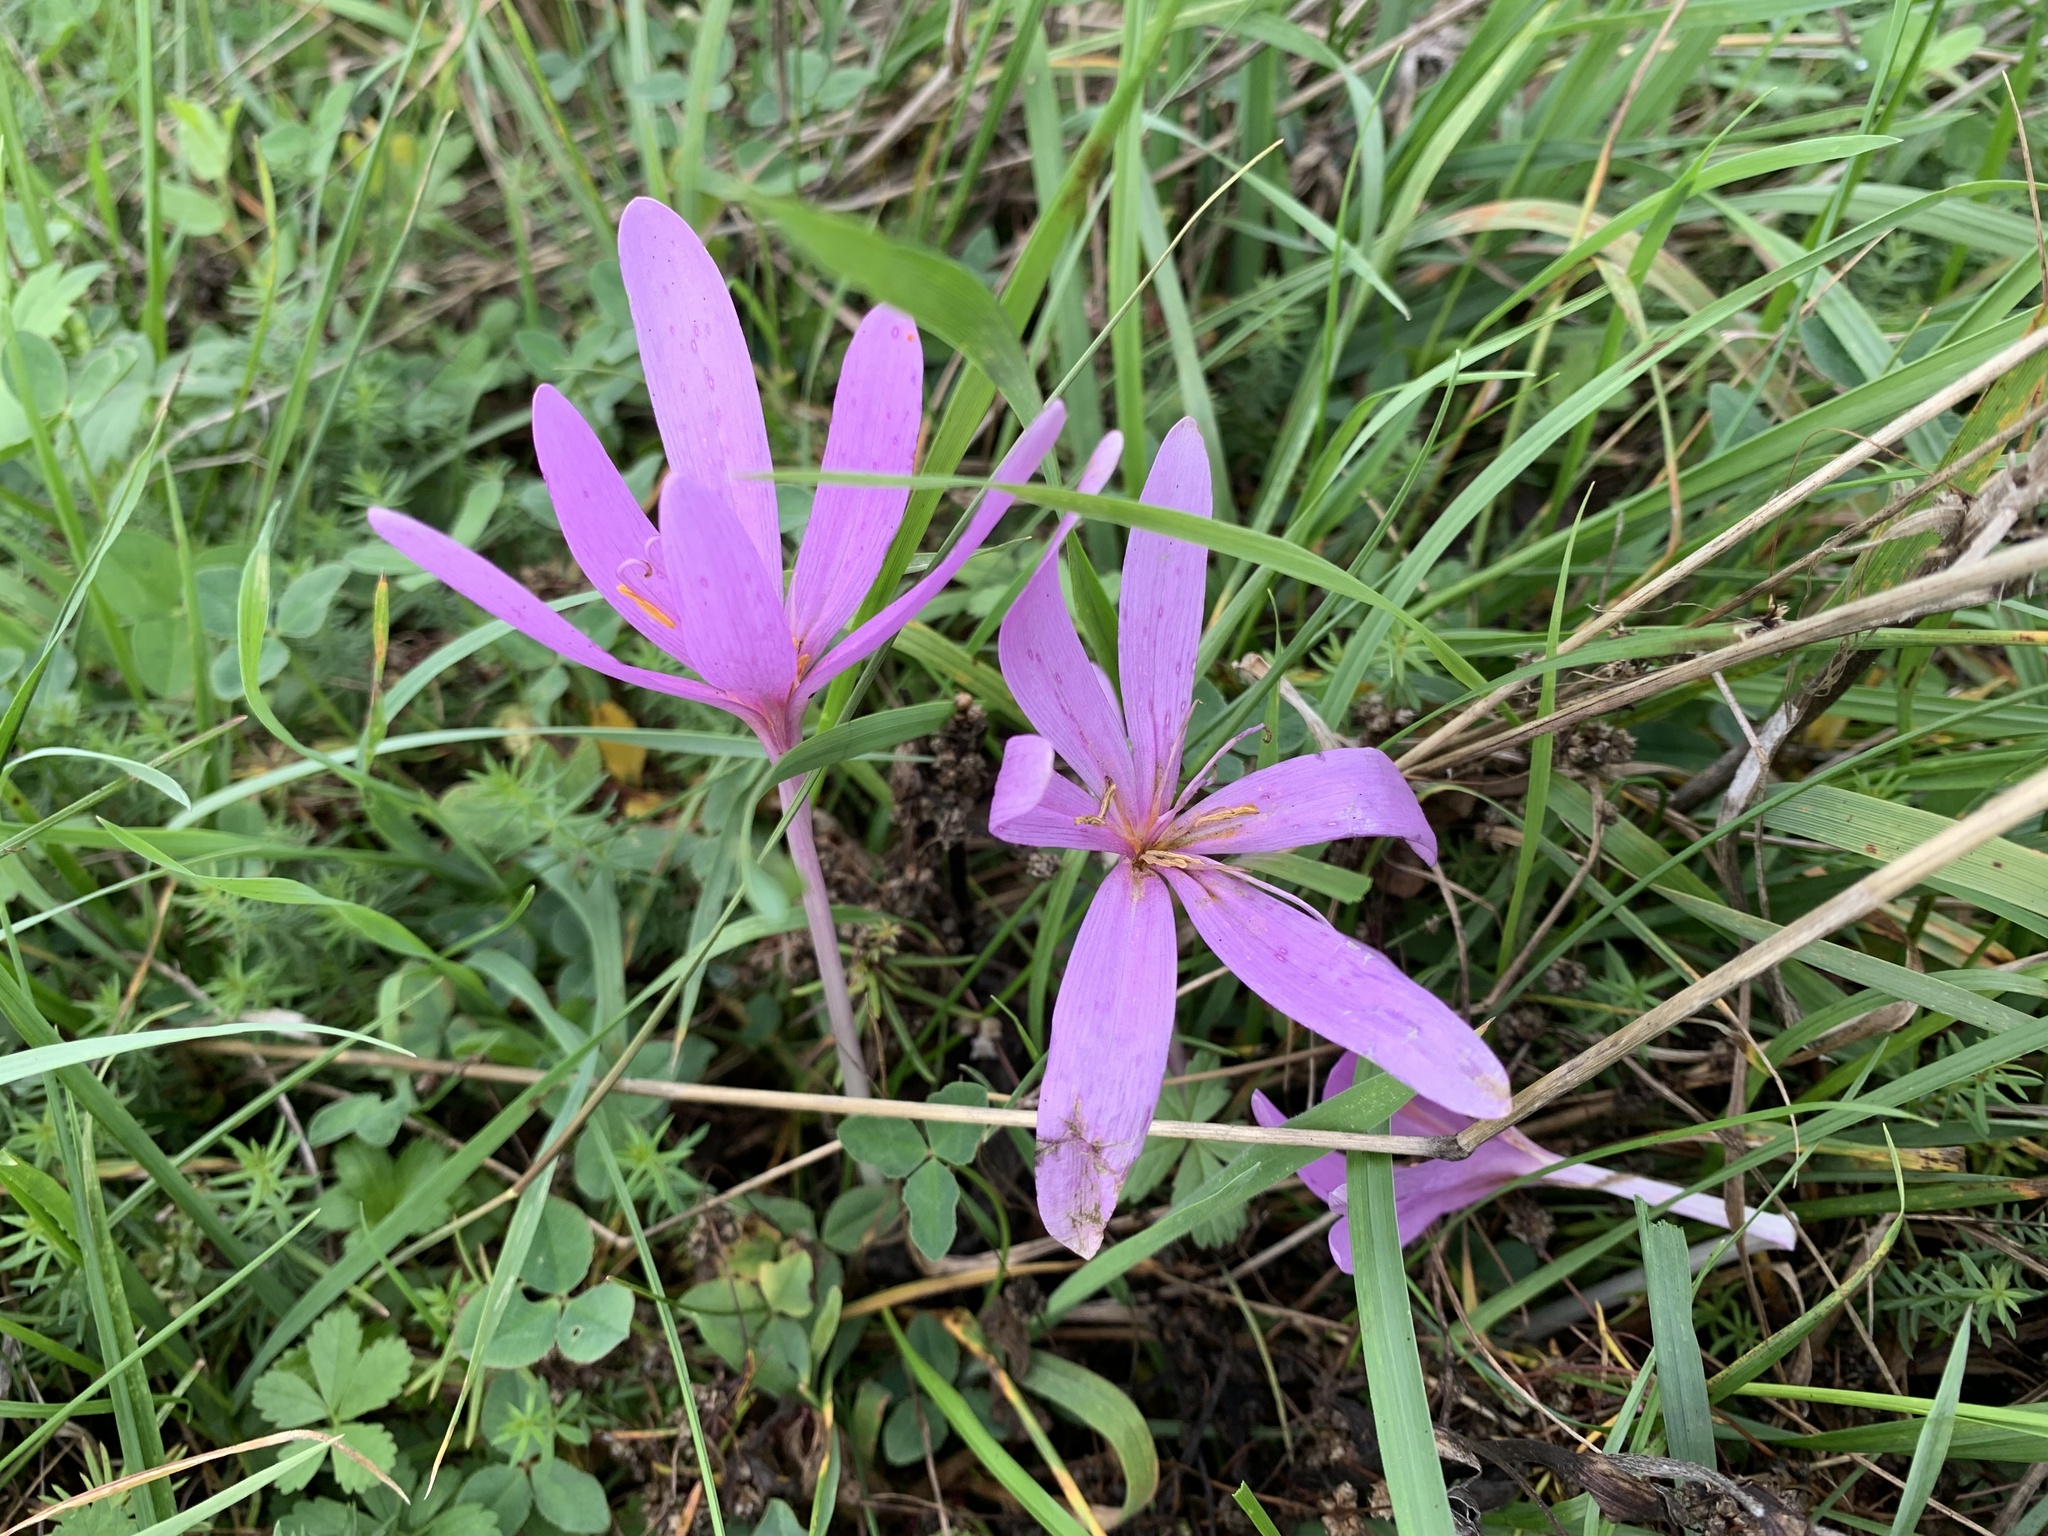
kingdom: Plantae
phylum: Tracheophyta
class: Liliopsida
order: Liliales
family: Colchicaceae
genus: Colchicum
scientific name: Colchicum autumnale
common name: Autumn crocus
